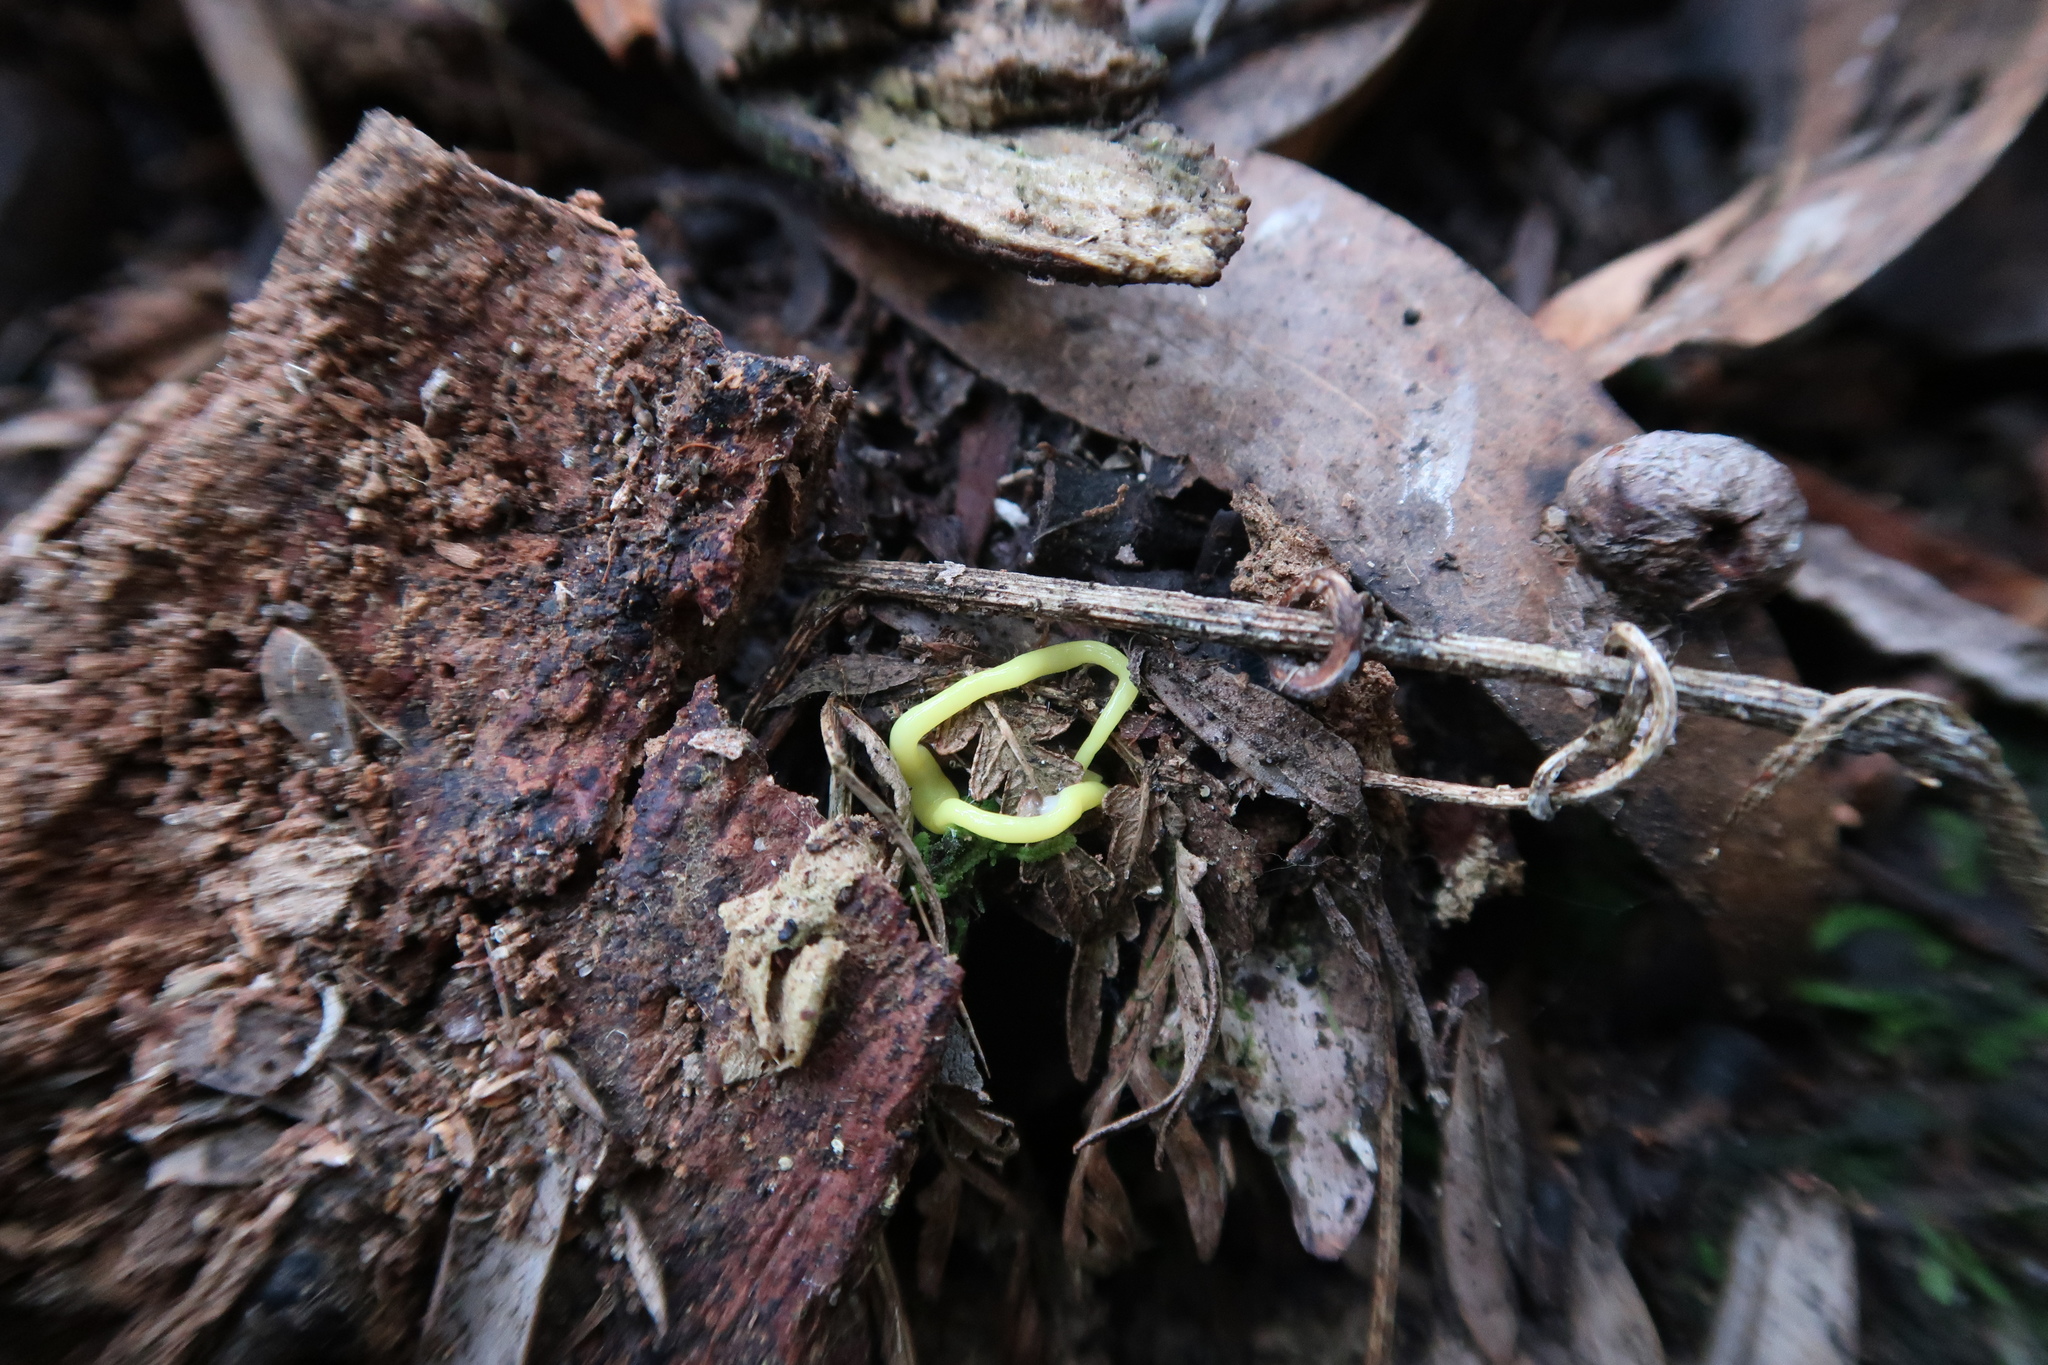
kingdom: Animalia
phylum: Platyhelminthes
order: Tricladida
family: Geoplanidae
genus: Fletchamia
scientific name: Fletchamia sugdeni
